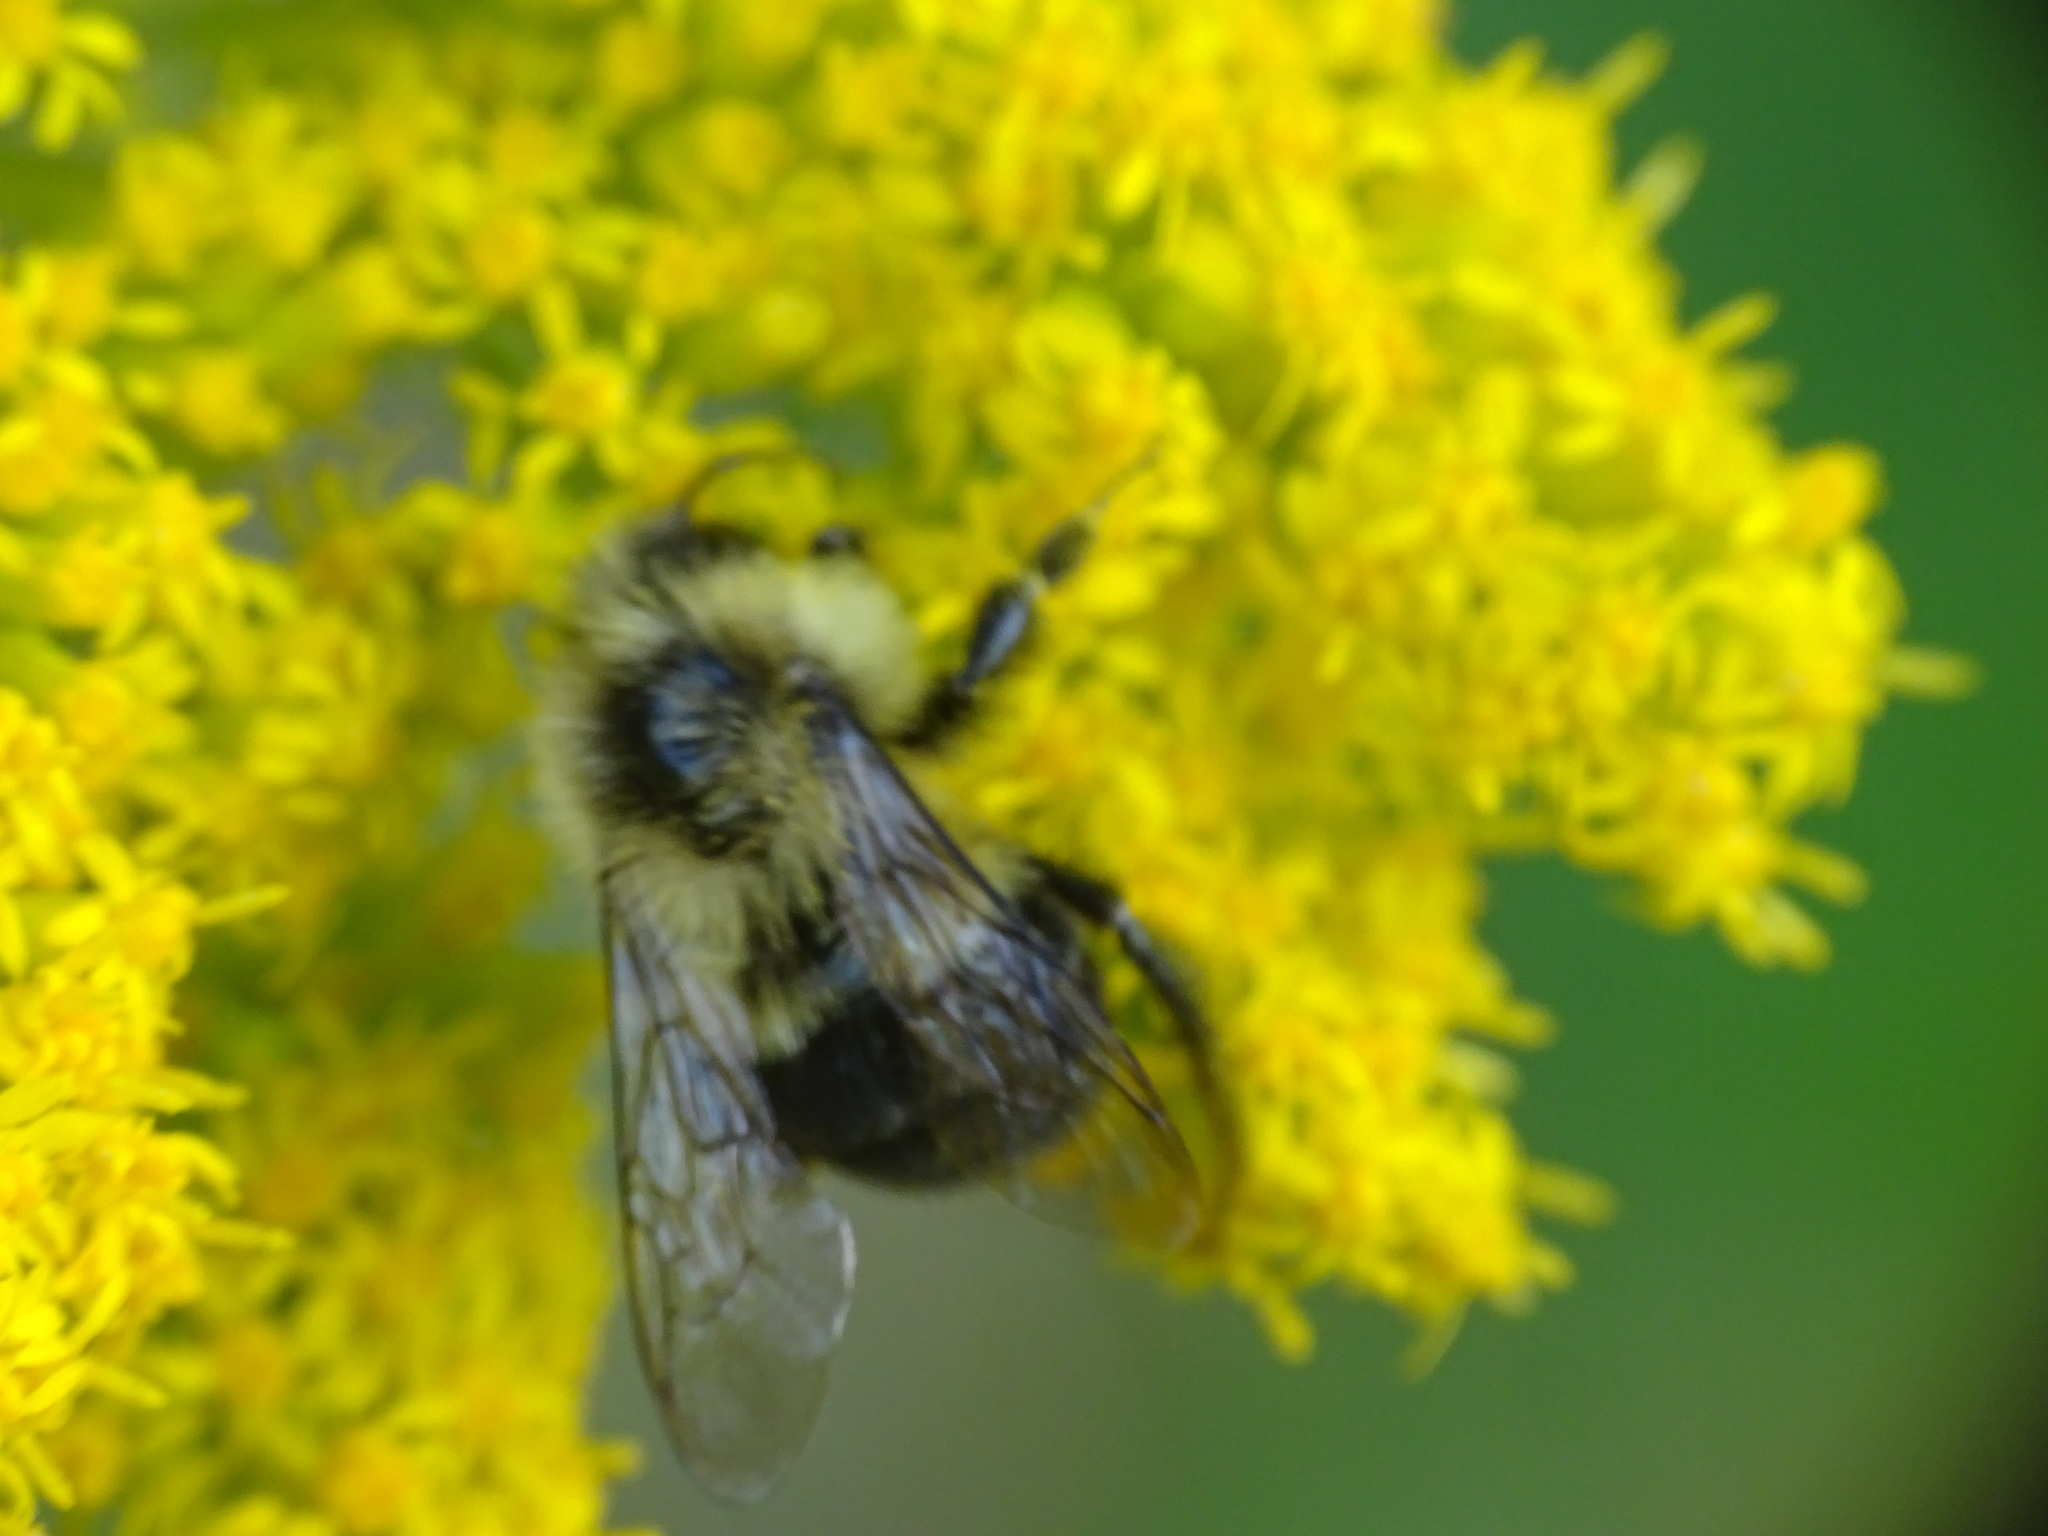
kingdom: Animalia
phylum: Arthropoda
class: Insecta
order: Hymenoptera
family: Apidae
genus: Bombus
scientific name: Bombus impatiens
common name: Common eastern bumble bee
